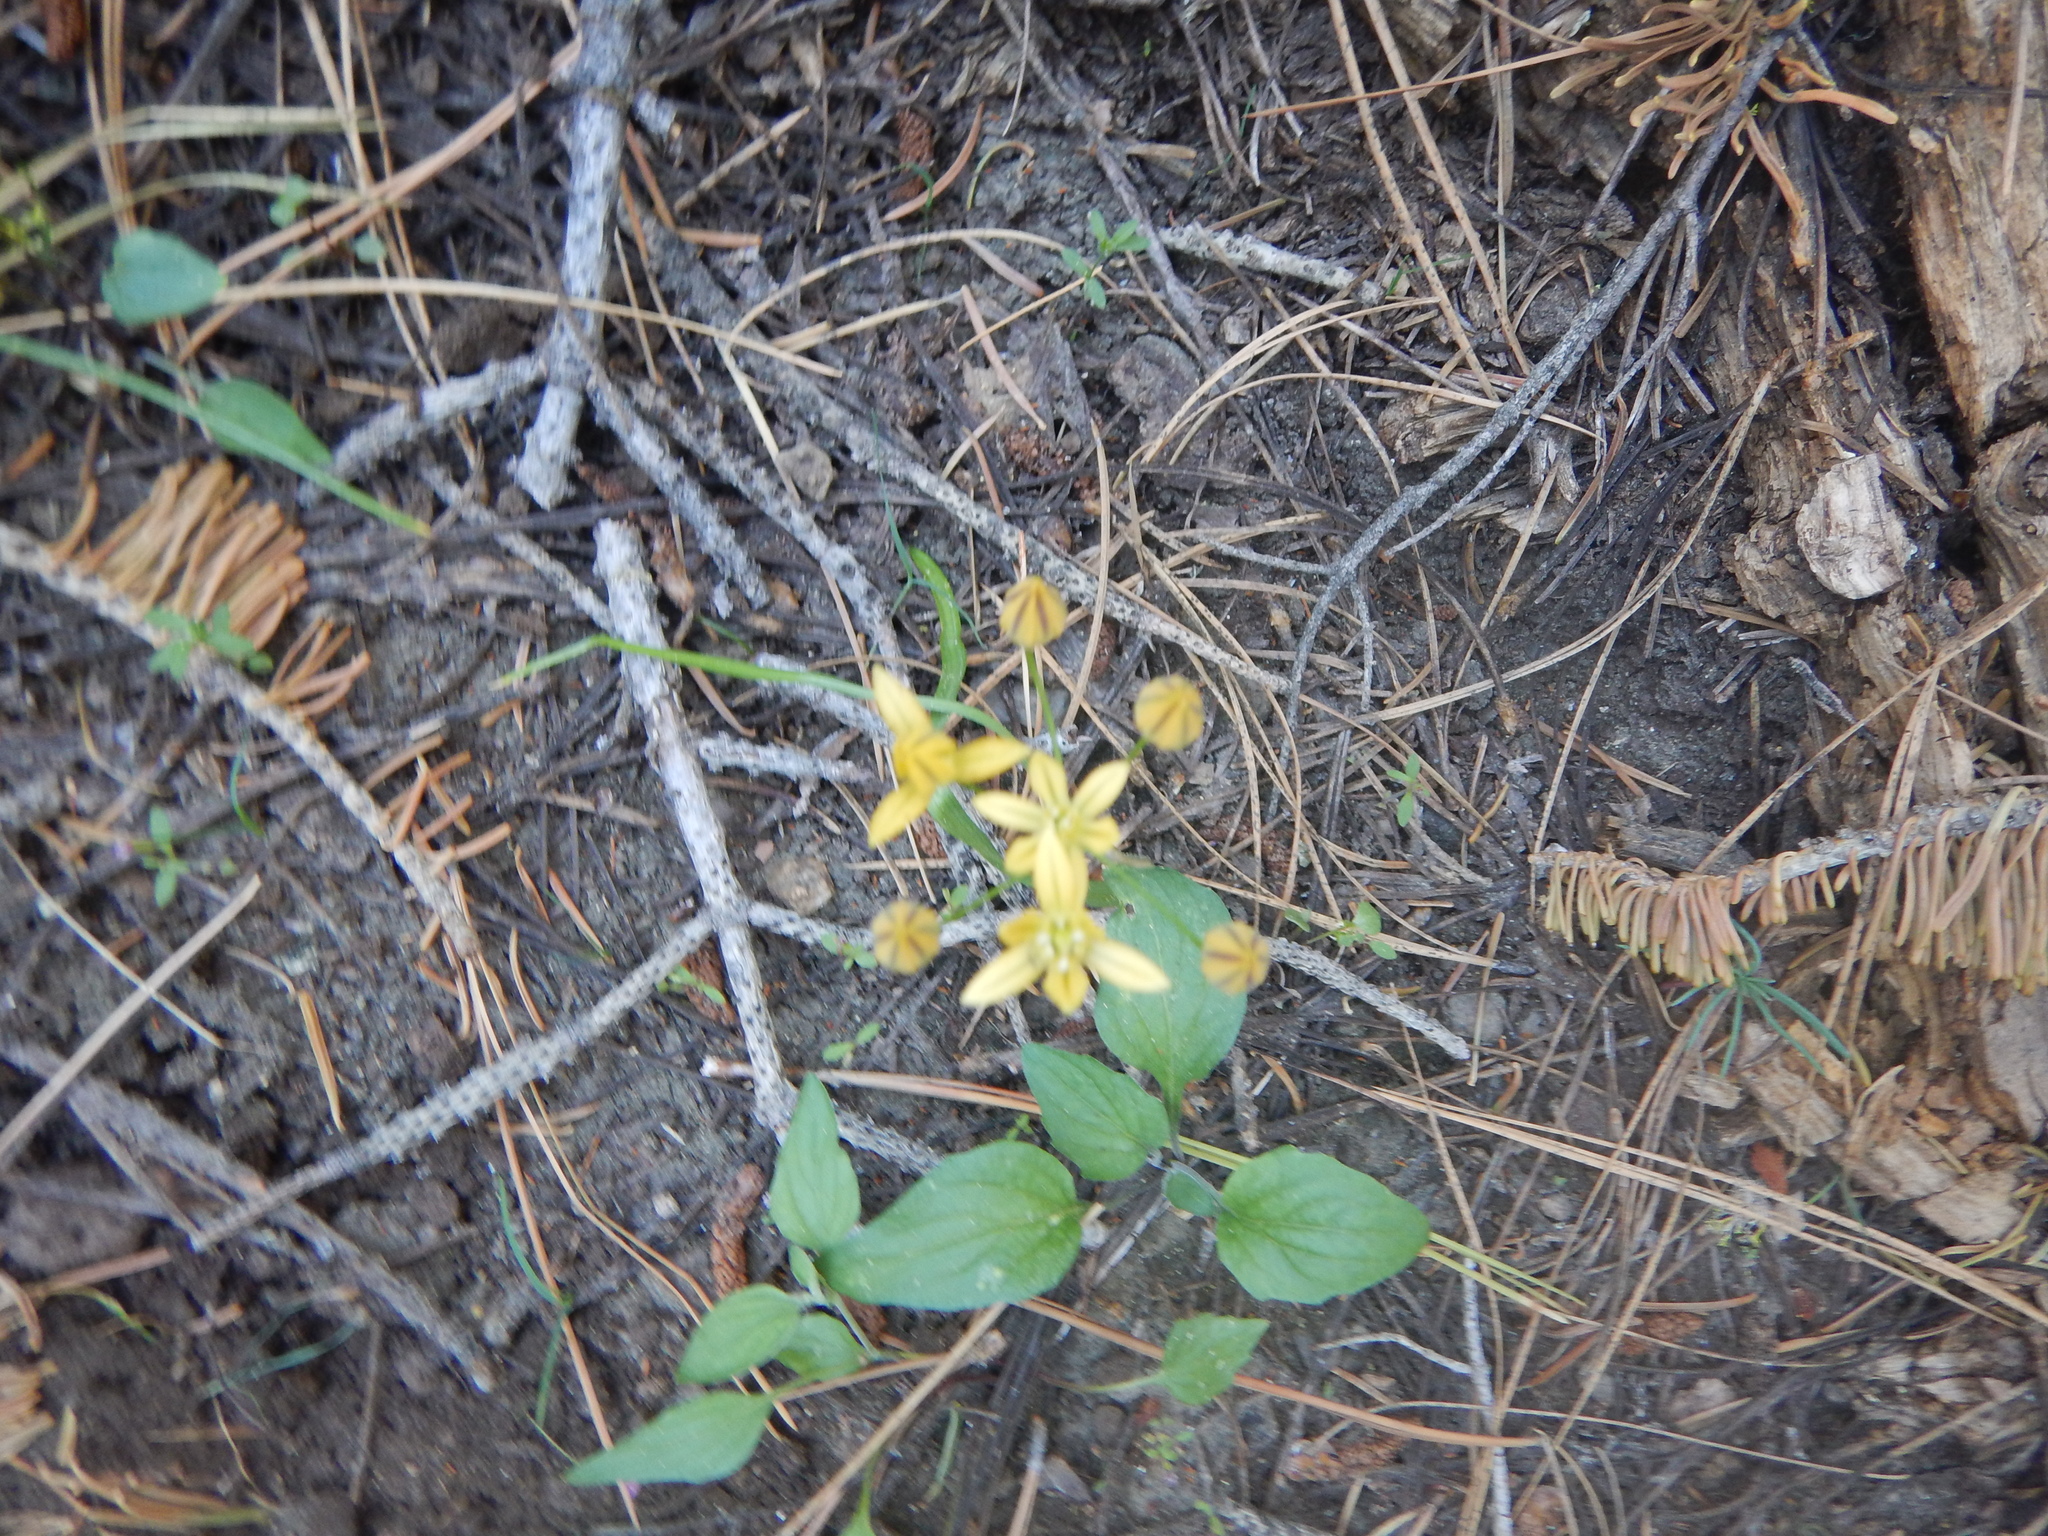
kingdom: Plantae
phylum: Tracheophyta
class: Liliopsida
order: Asparagales
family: Asparagaceae
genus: Triteleia
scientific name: Triteleia ixioides
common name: Yellow-brodiaea
